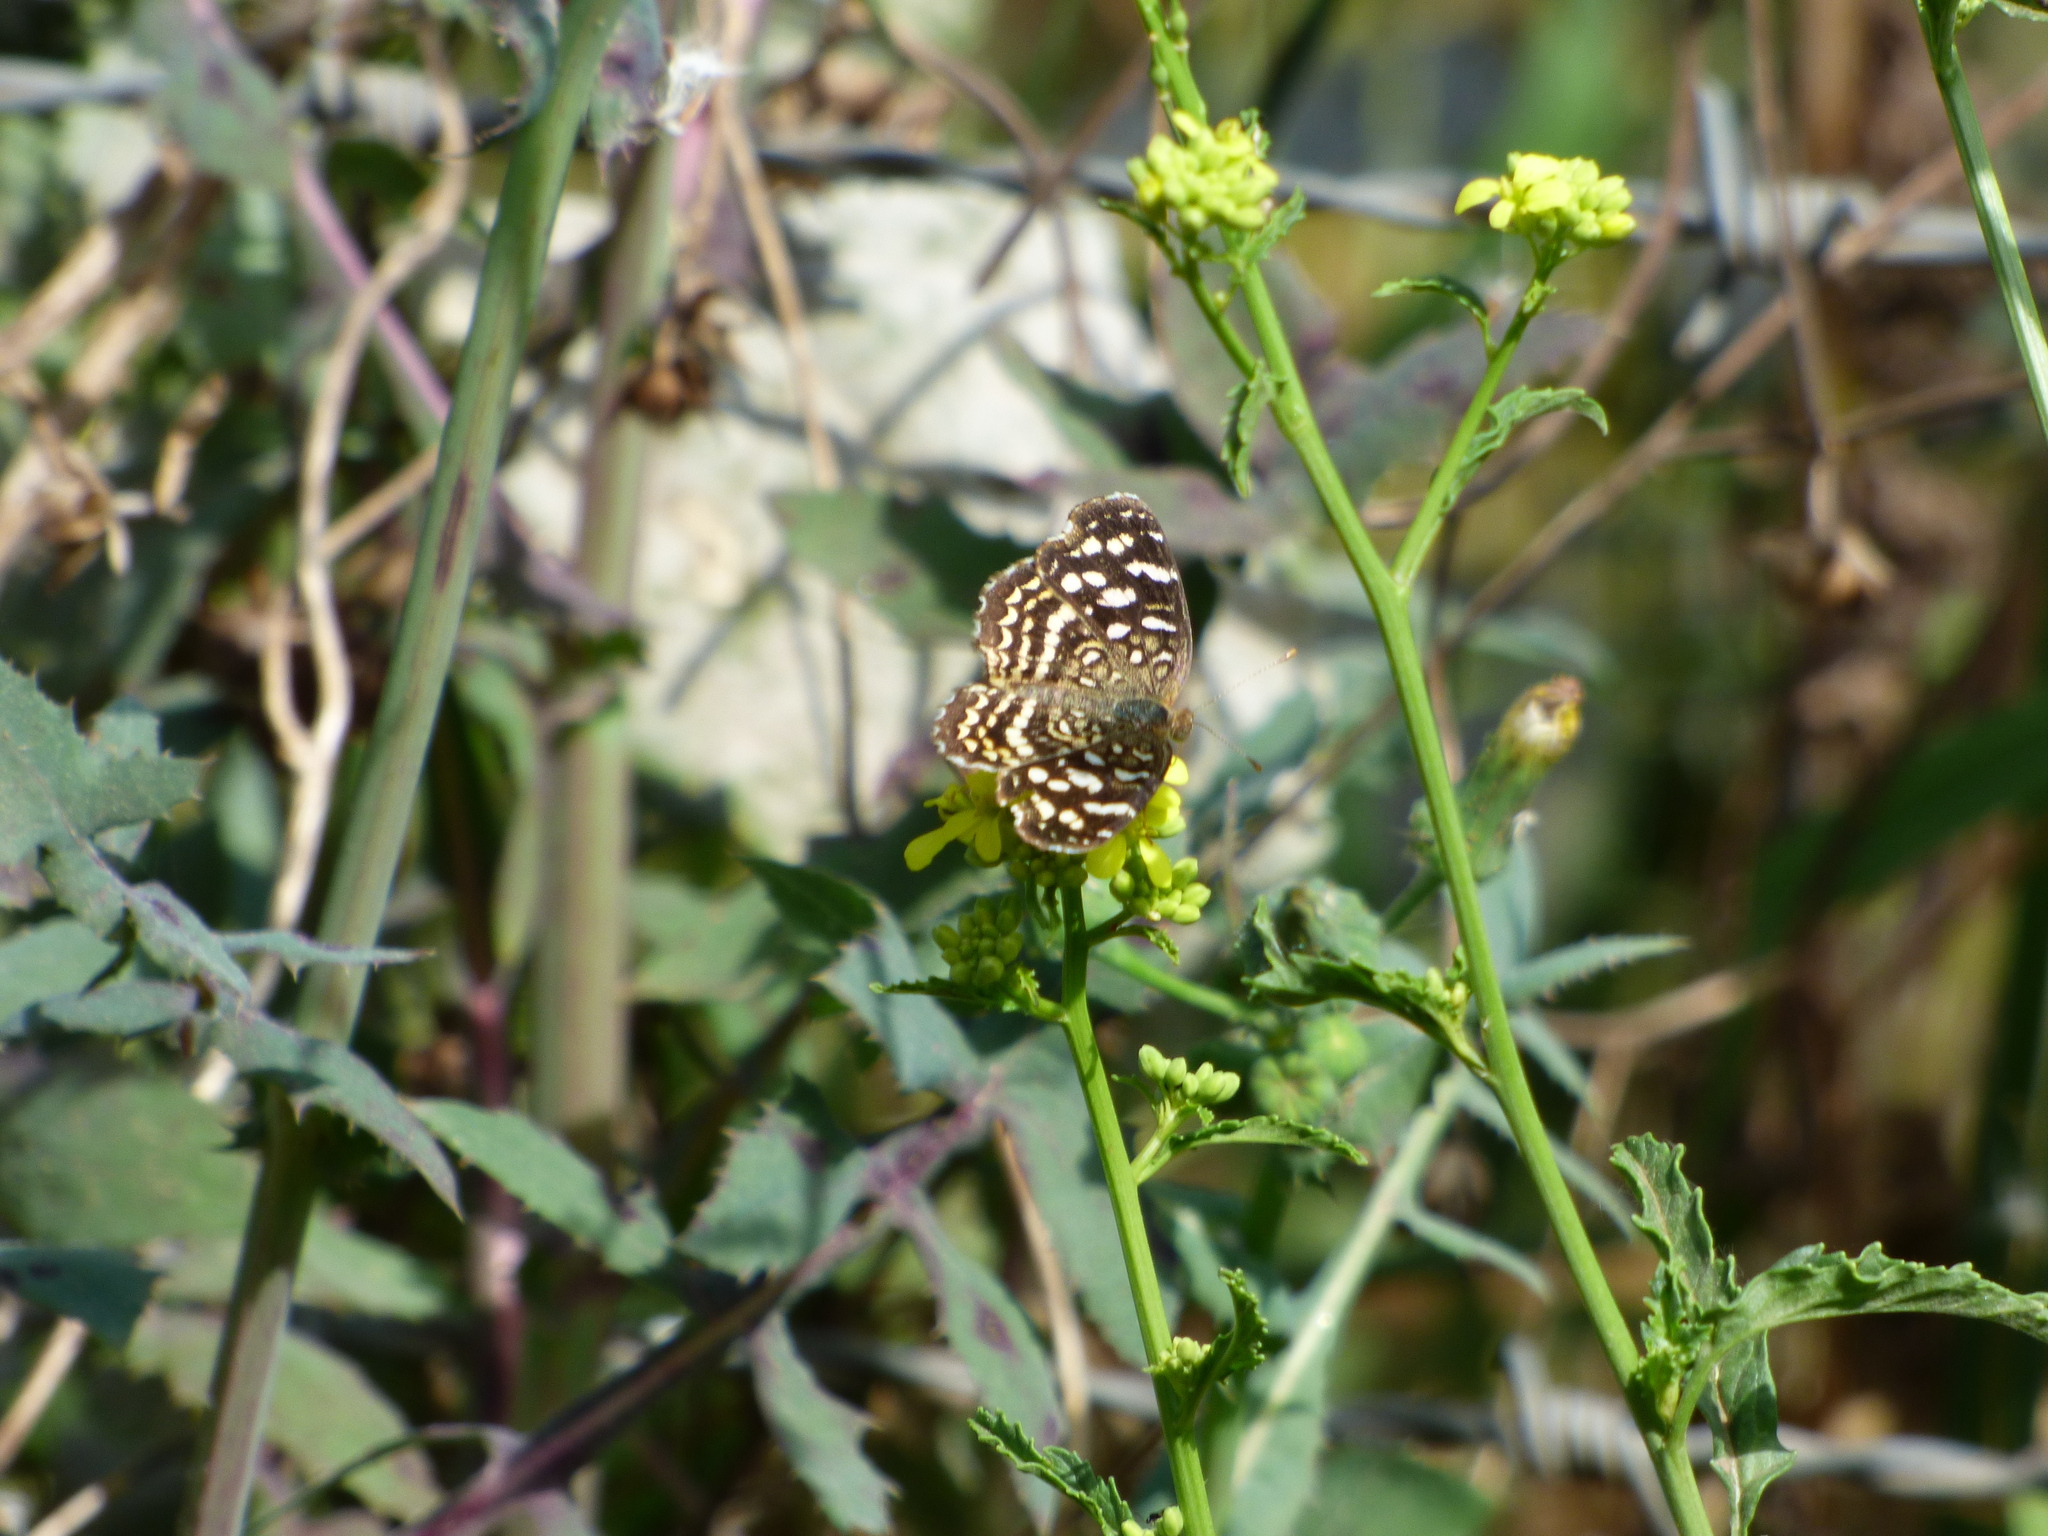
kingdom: Animalia
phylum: Arthropoda
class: Insecta
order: Lepidoptera
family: Nymphalidae
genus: Anthanassa
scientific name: Anthanassa hermas
